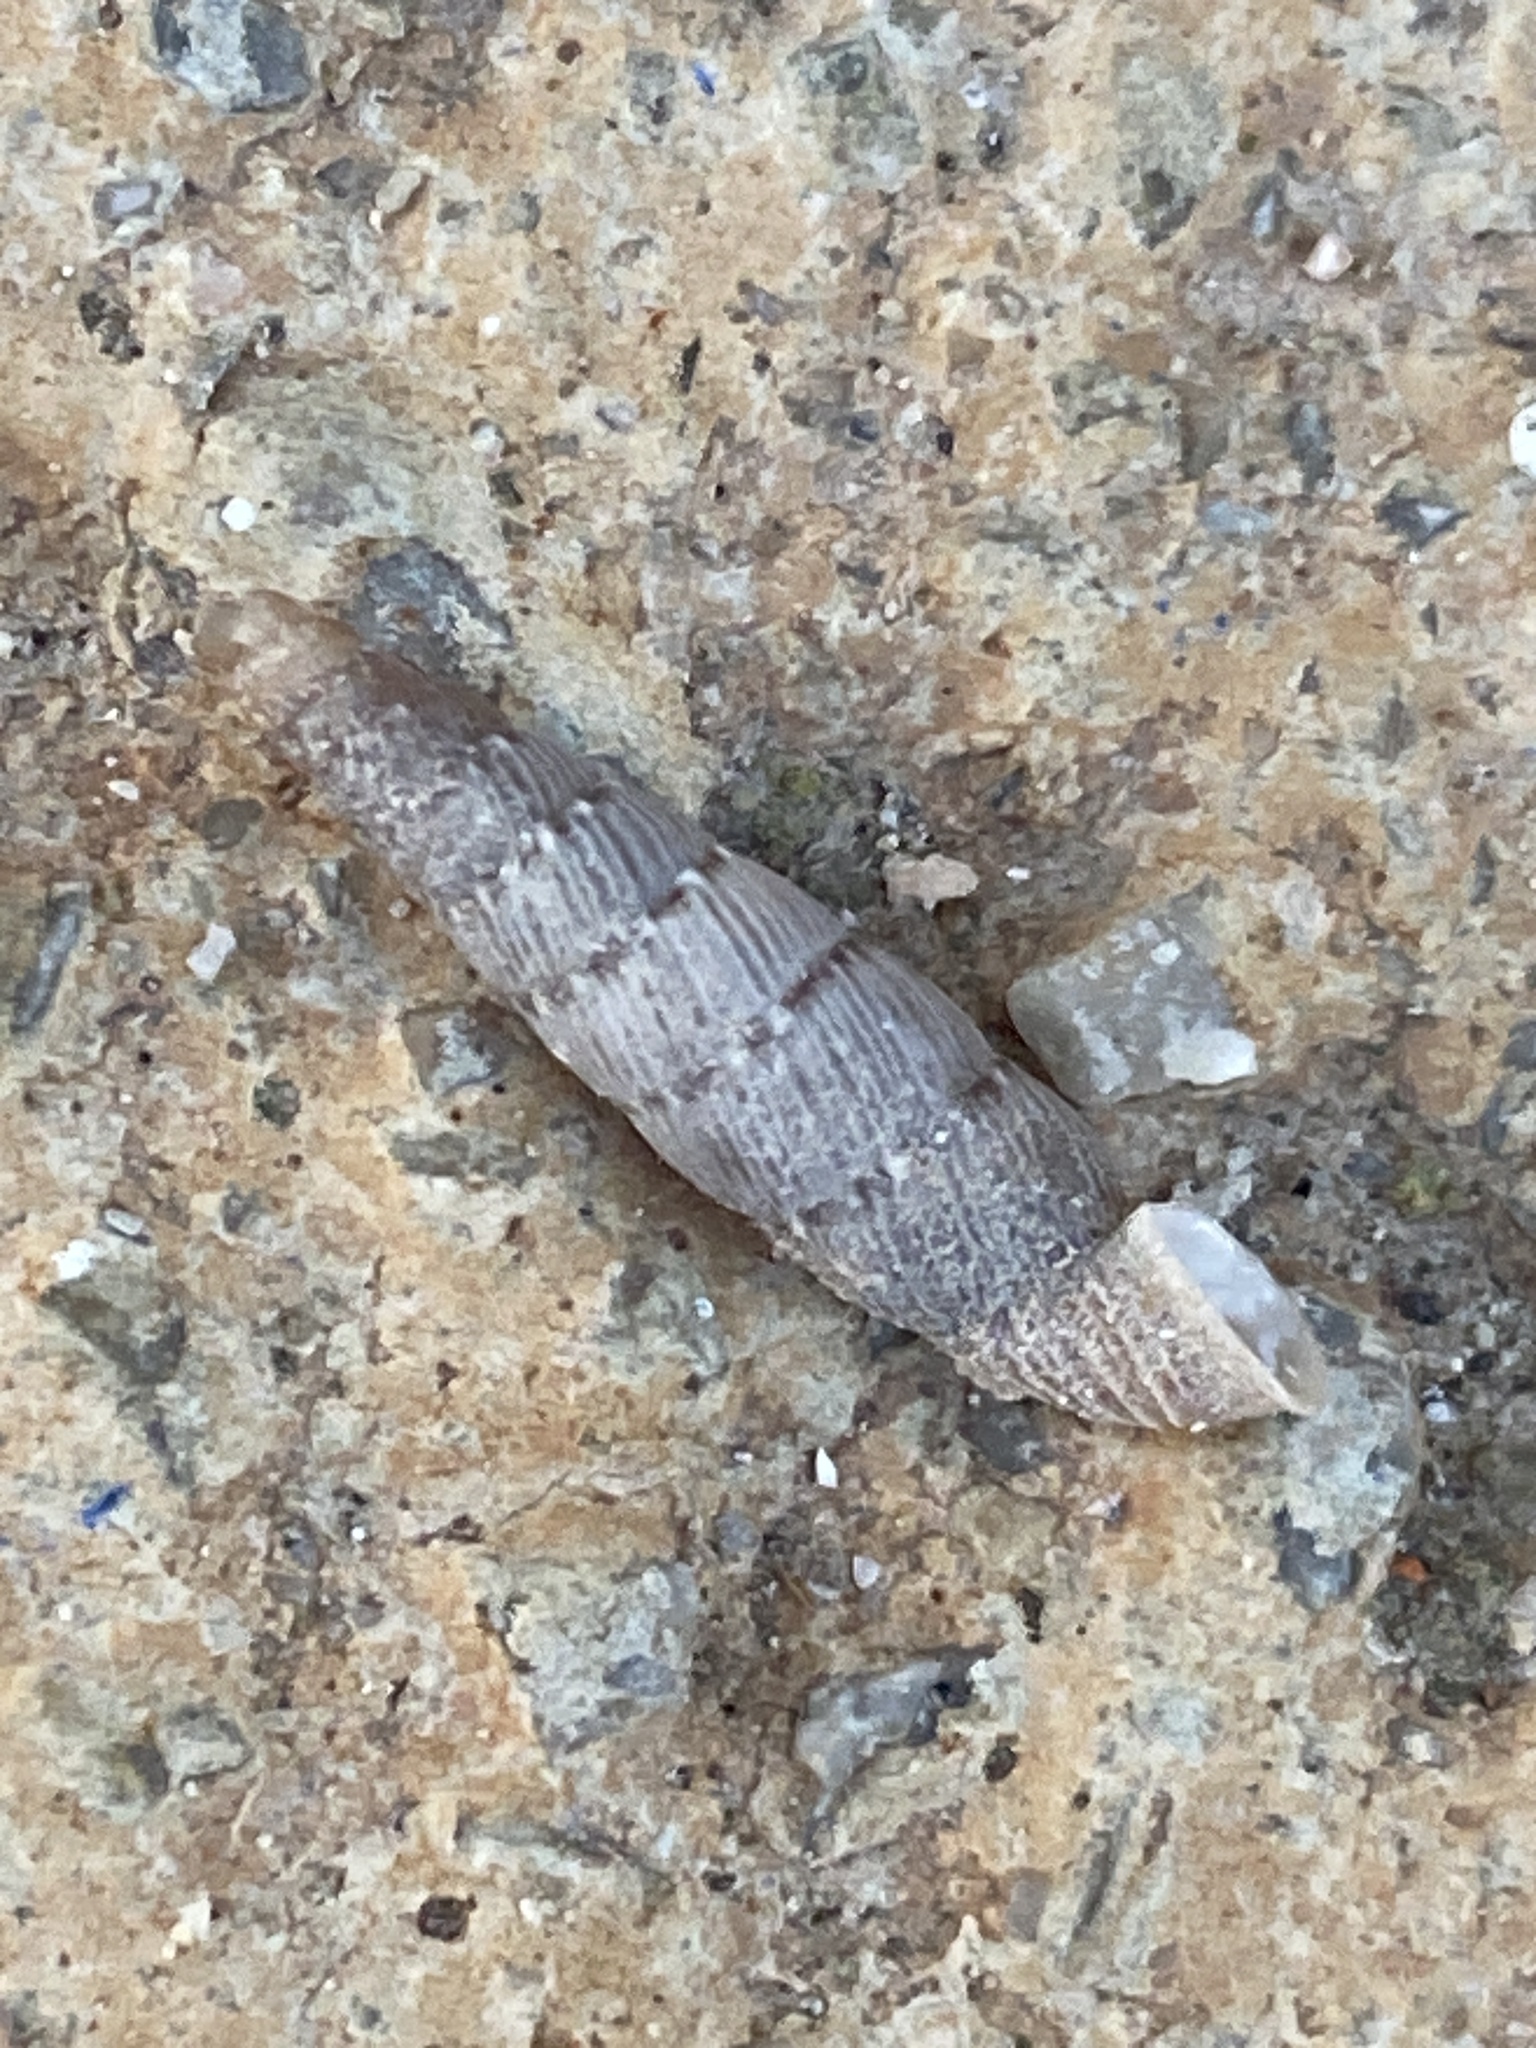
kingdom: Animalia
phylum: Mollusca
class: Gastropoda
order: Stylommatophora
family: Clausiliidae
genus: Papillifera
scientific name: Papillifera papillaris
